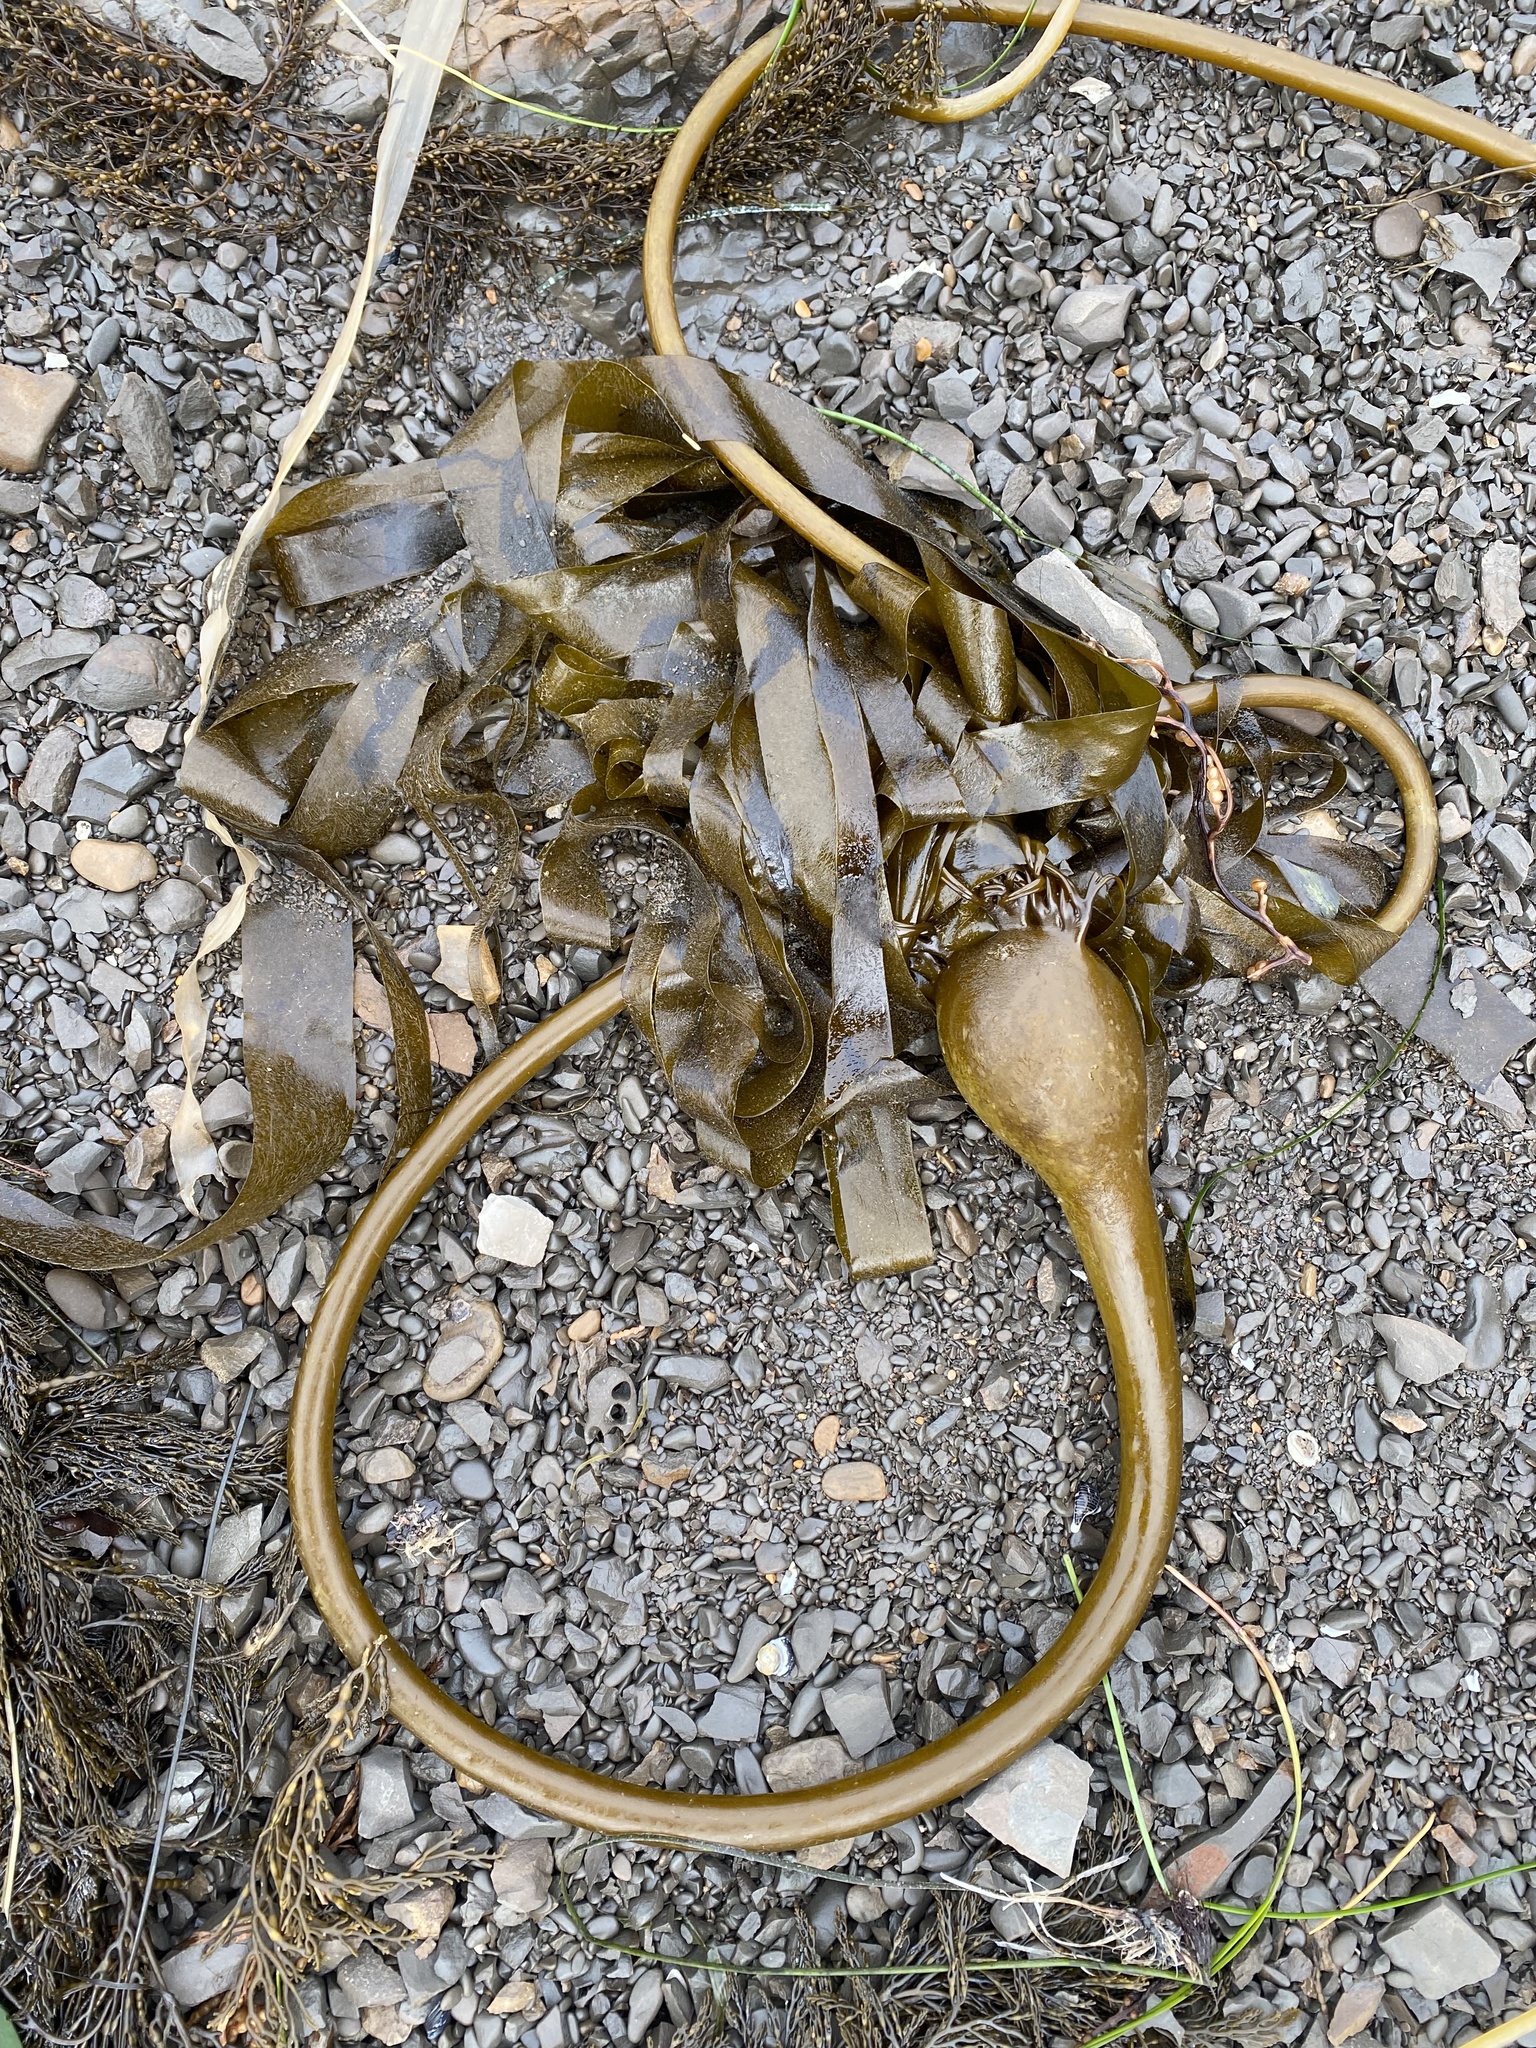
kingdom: Chromista
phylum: Ochrophyta
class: Phaeophyceae
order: Laminariales
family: Laminariaceae
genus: Nereocystis
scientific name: Nereocystis luetkeana
